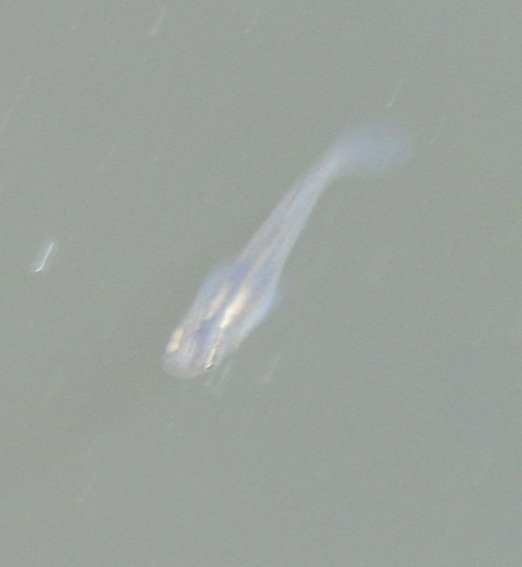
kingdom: Animalia
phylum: Chordata
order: Cyprinodontiformes
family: Poeciliidae
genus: Gambusia
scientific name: Gambusia affinis
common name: Mosquitofish
